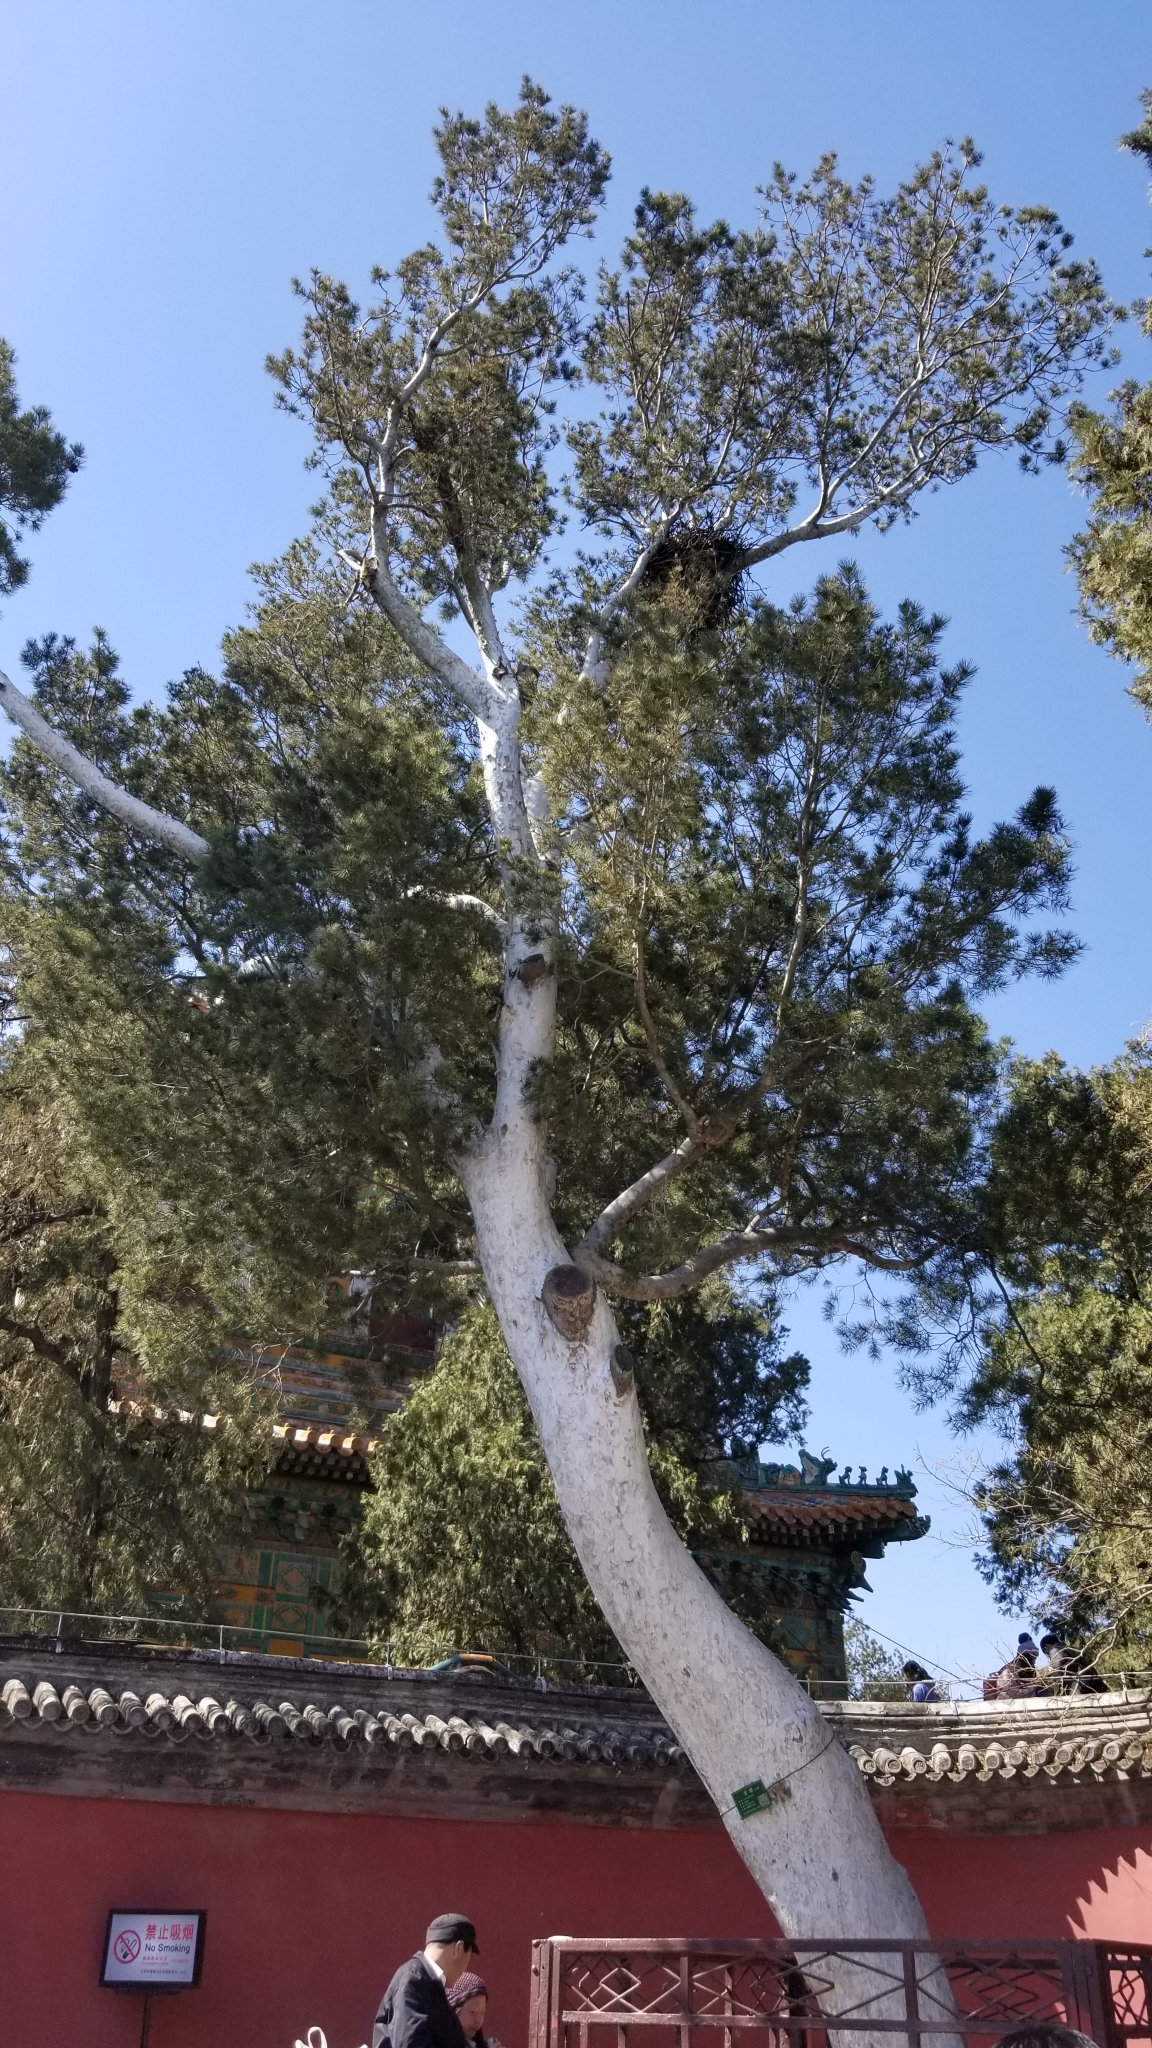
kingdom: Plantae
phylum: Tracheophyta
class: Pinopsida
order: Pinales
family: Pinaceae
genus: Pinus
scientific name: Pinus bungeana
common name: Lace-bark pine
